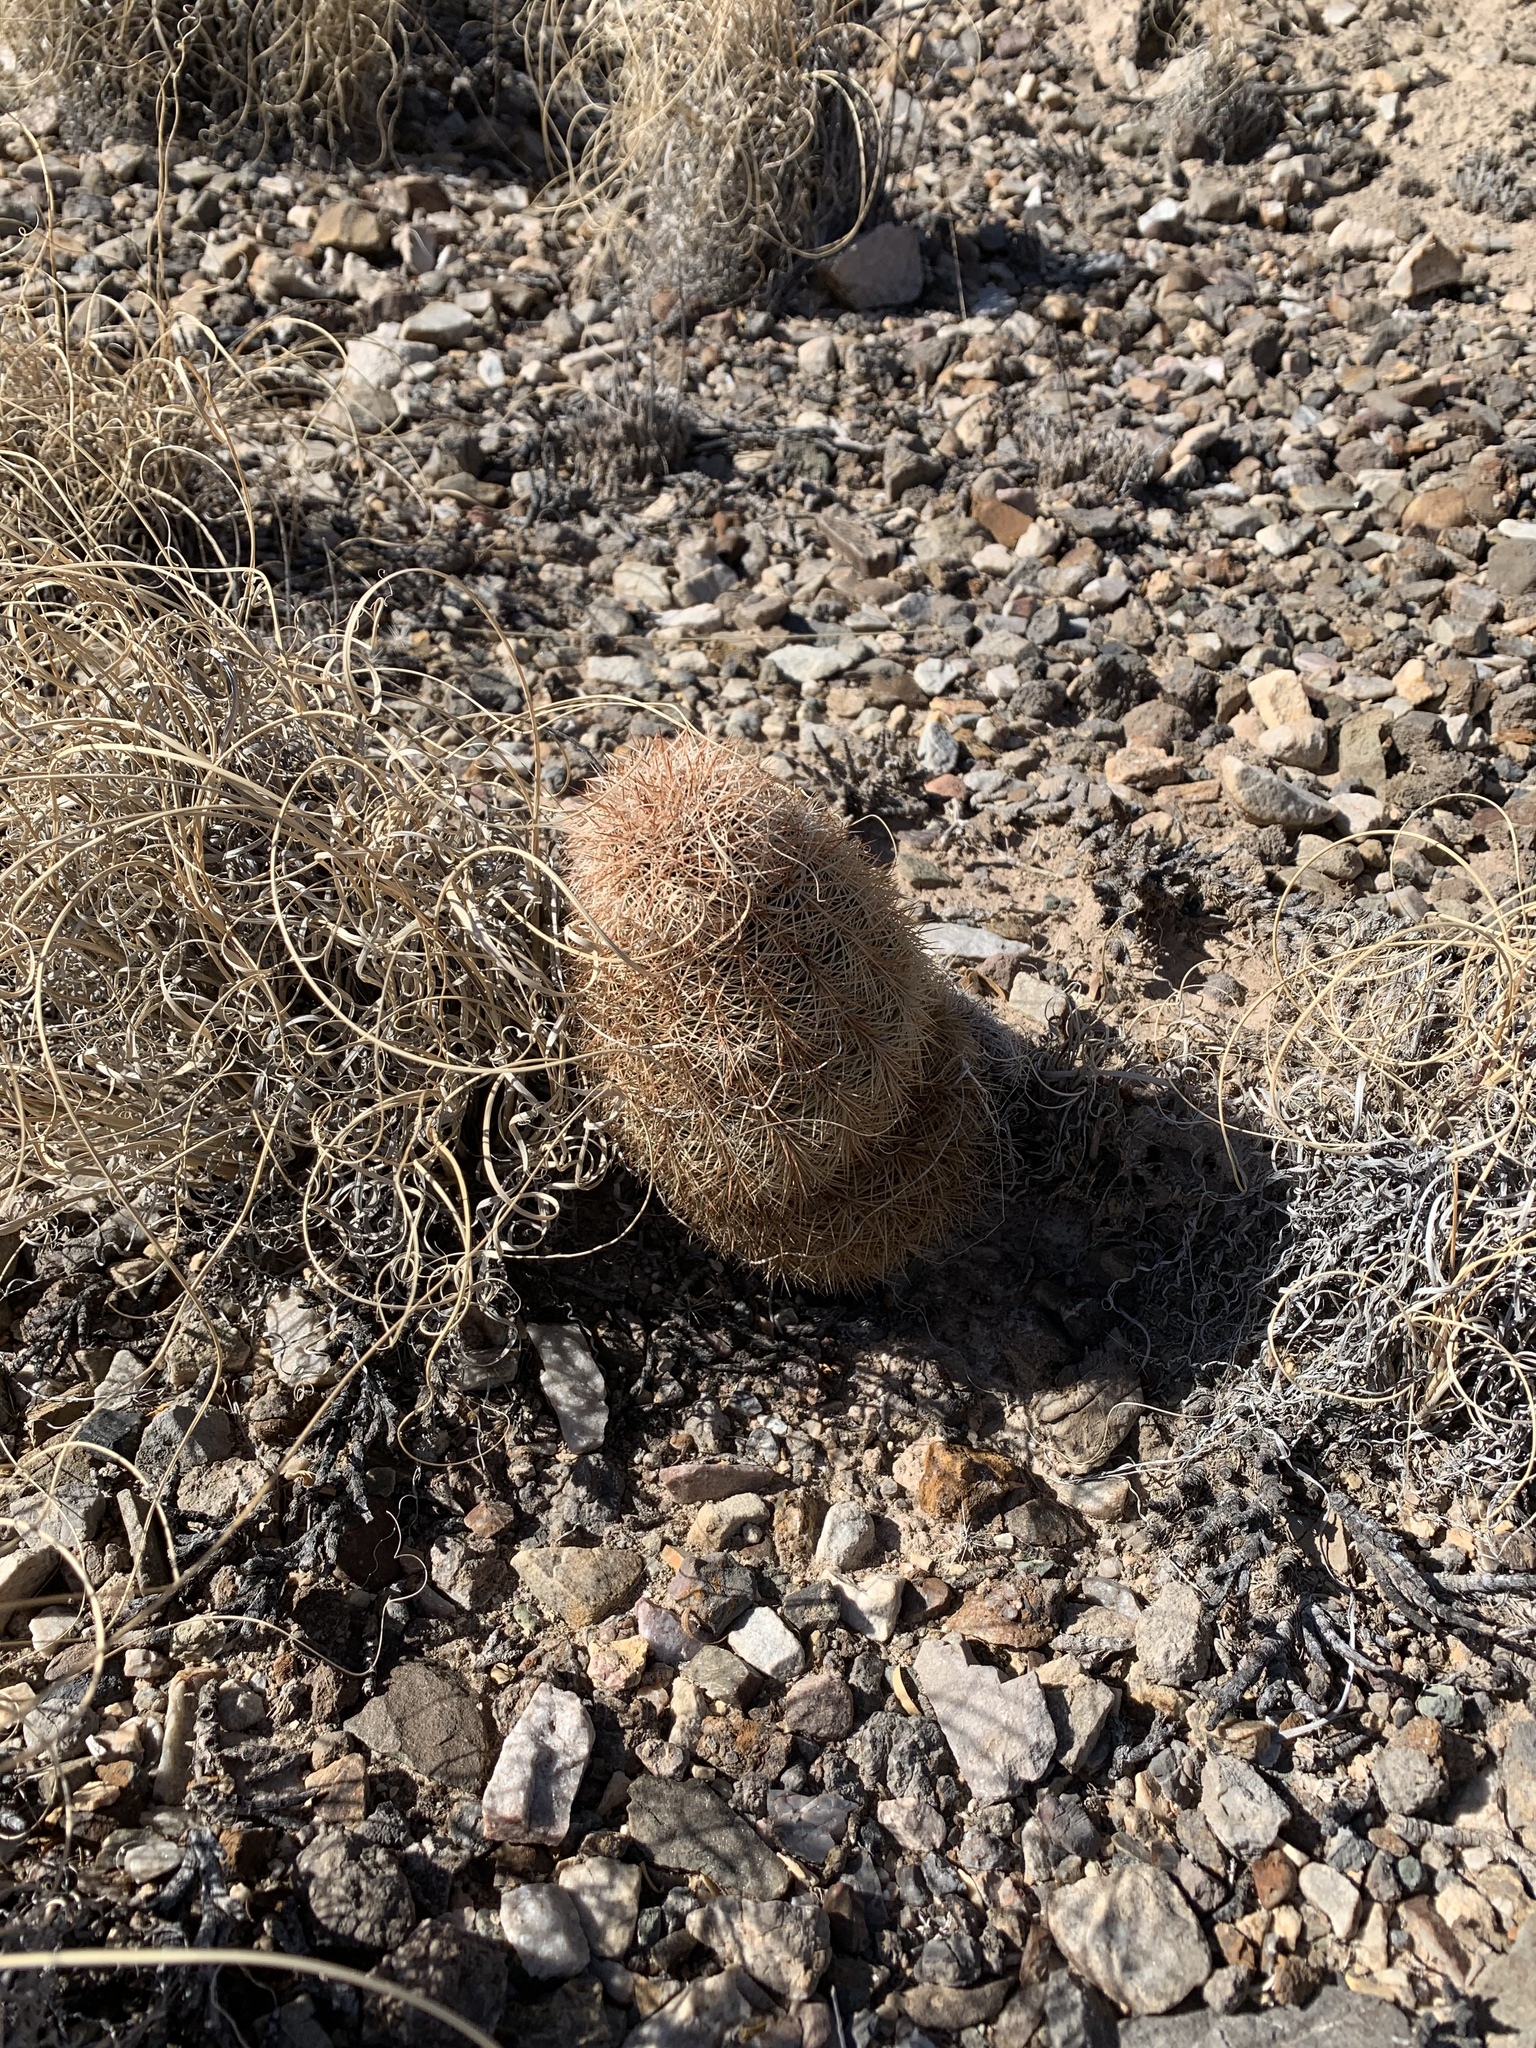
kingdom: Plantae
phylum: Tracheophyta
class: Magnoliopsida
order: Caryophyllales
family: Cactaceae
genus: Echinocereus
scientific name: Echinocereus dasyacanthus
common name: Spiny hedgehog cactus
